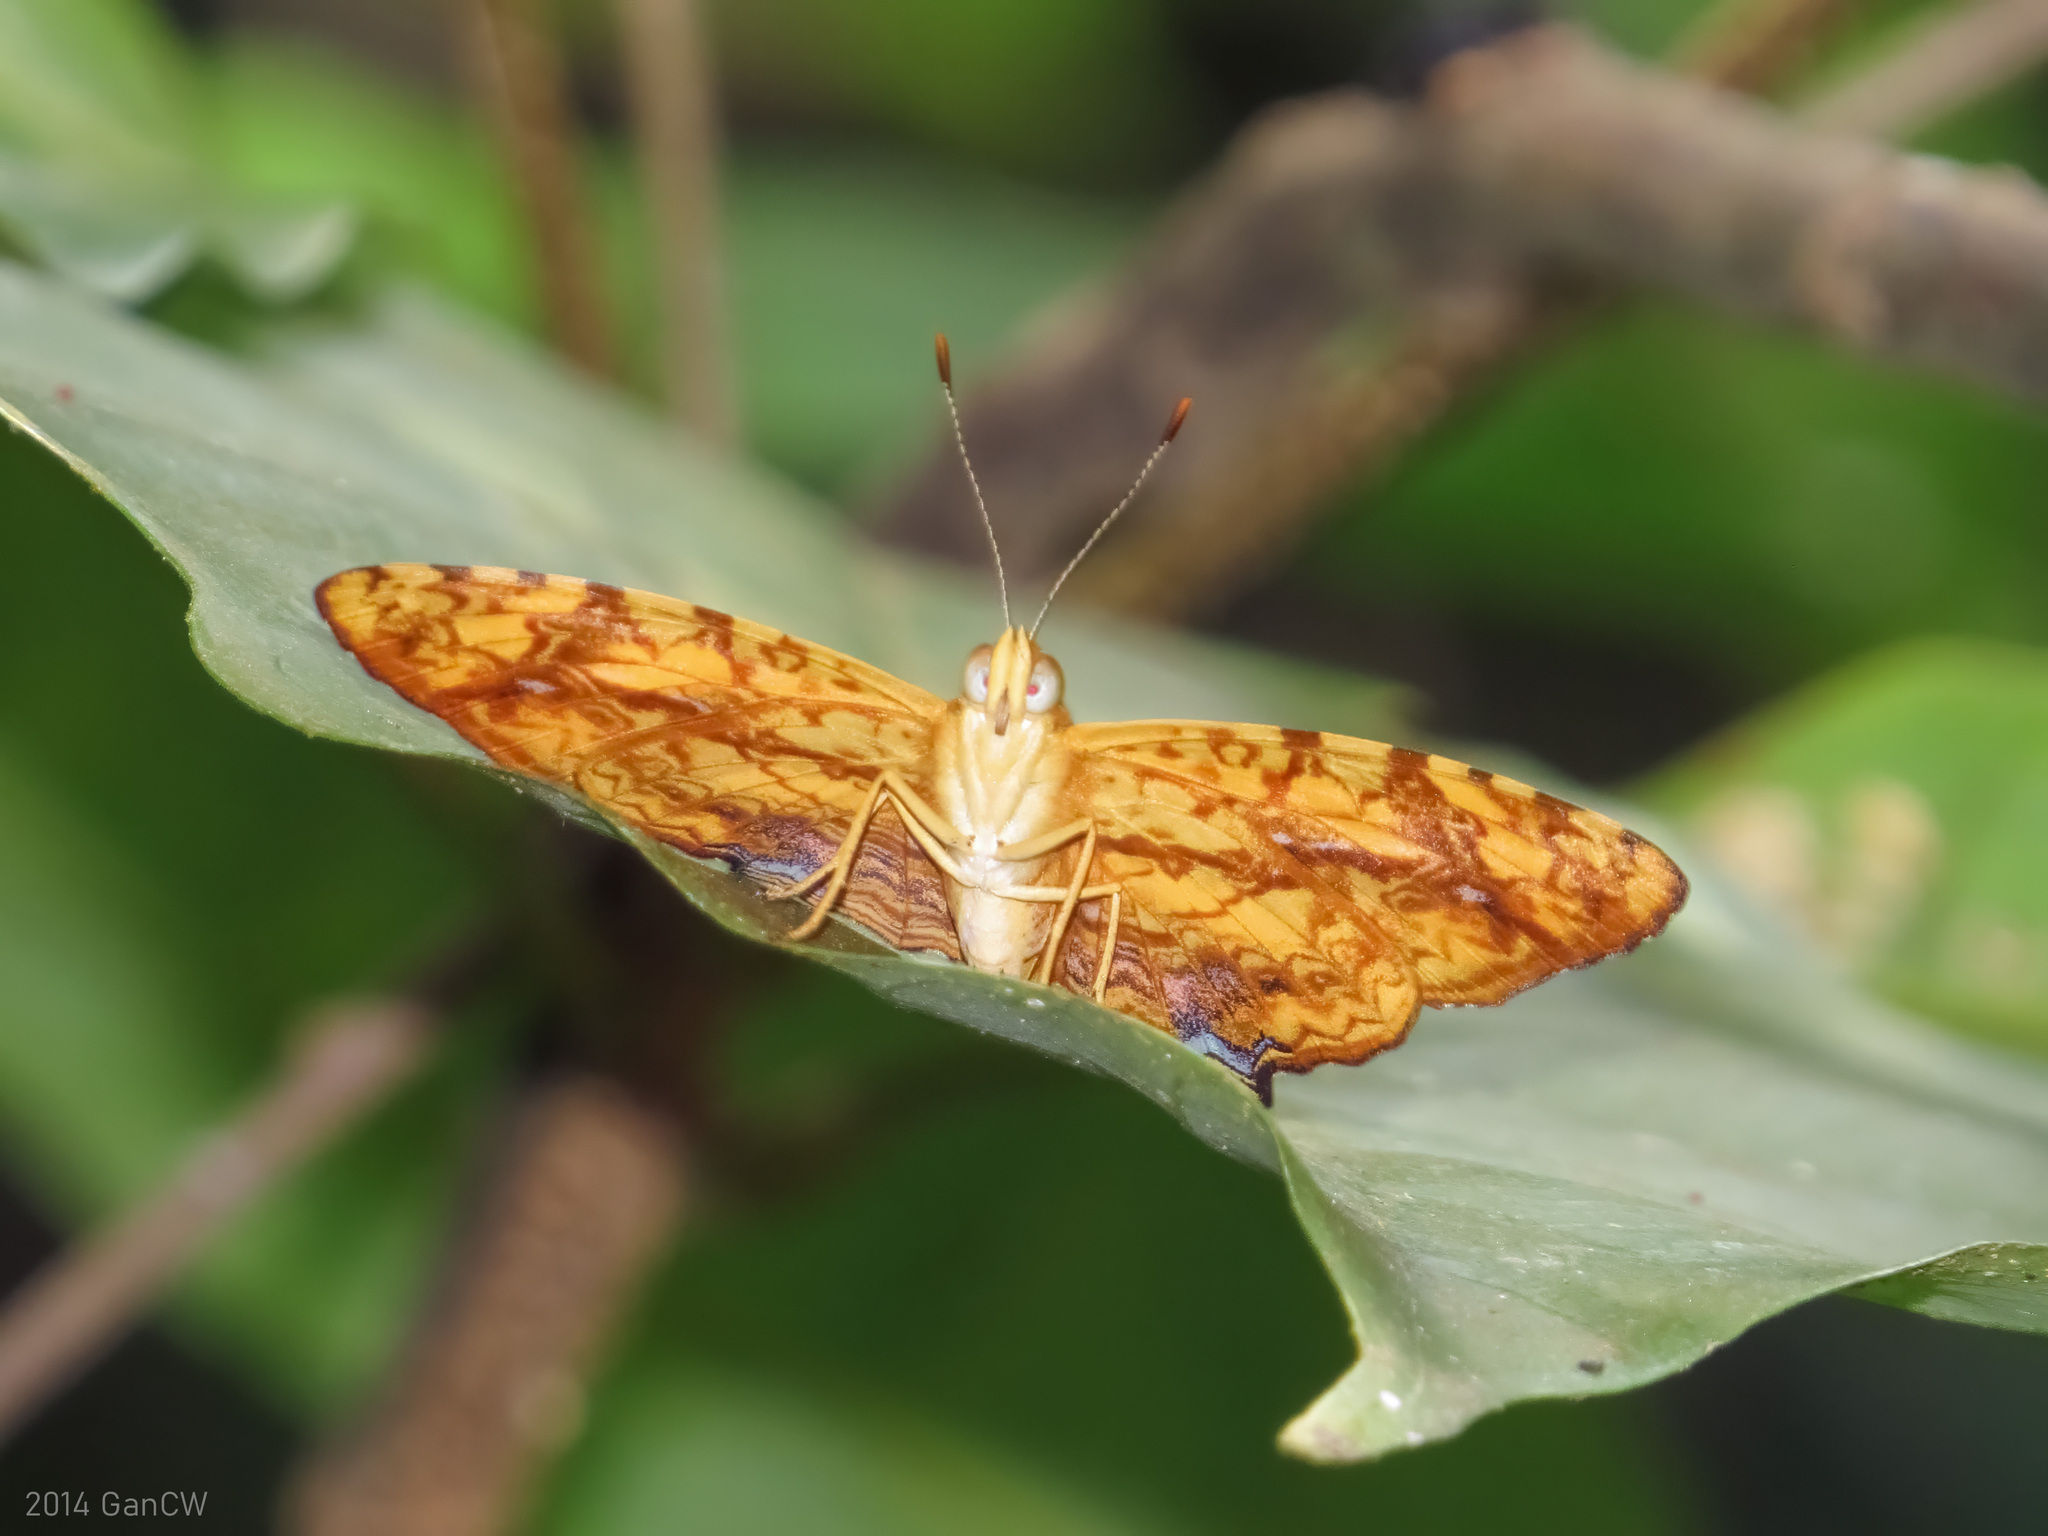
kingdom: Animalia
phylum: Arthropoda
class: Insecta
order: Lepidoptera
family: Nymphalidae
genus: Symbrenthia
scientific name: Symbrenthia hypselis
